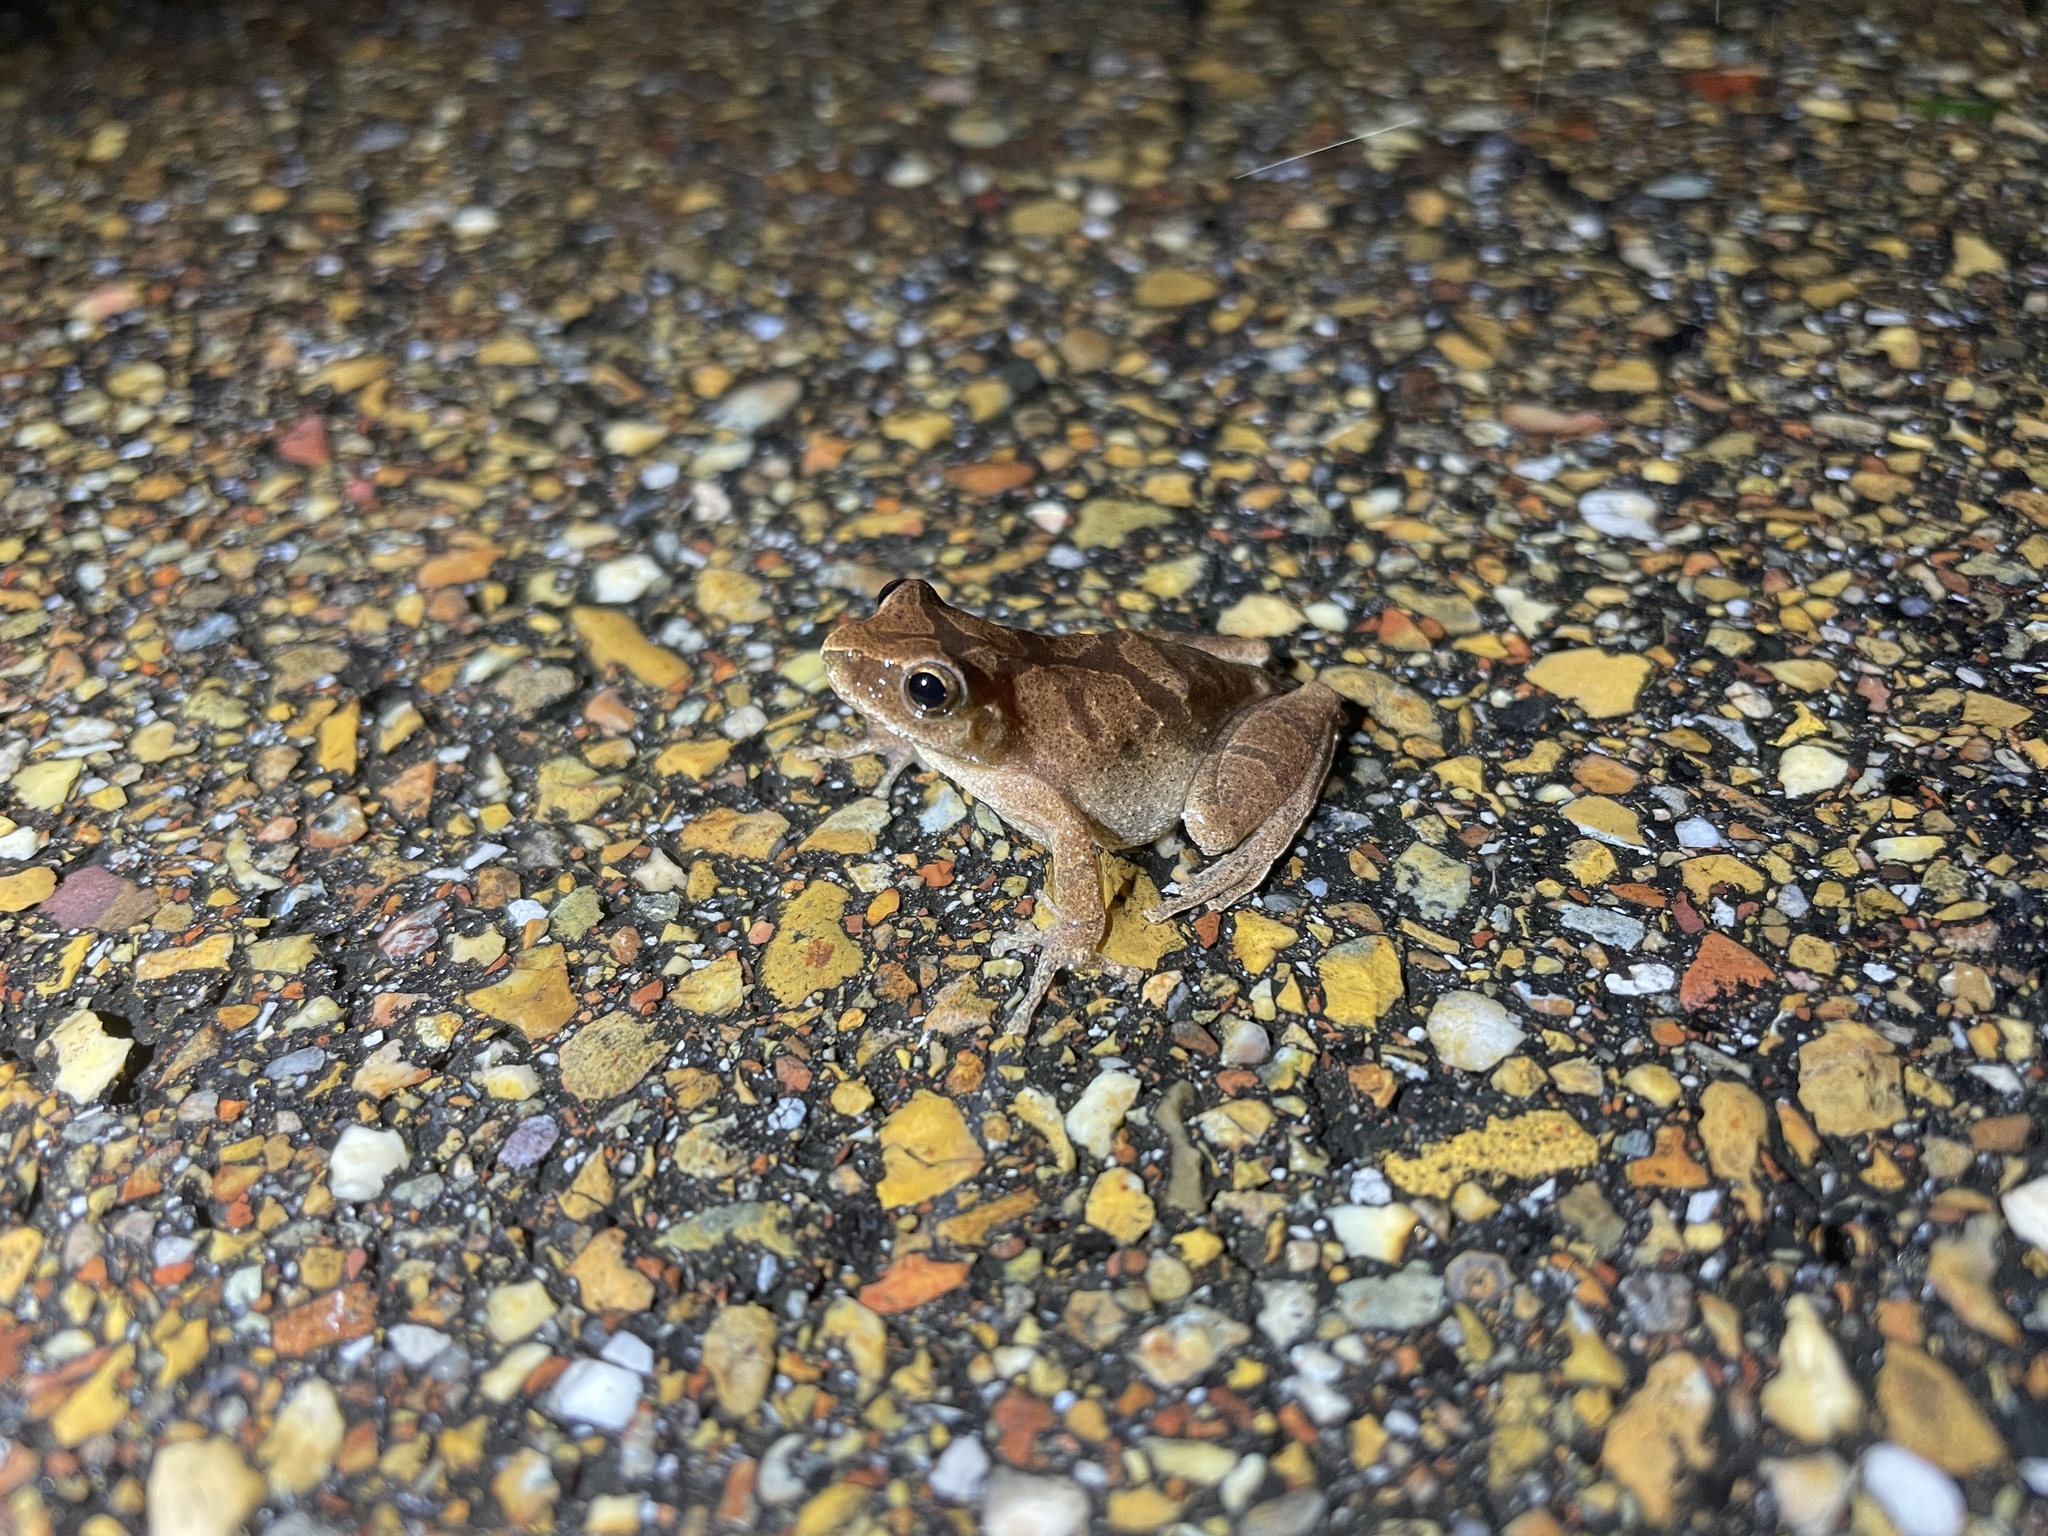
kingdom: Animalia
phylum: Chordata
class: Amphibia
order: Anura
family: Hylidae
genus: Pseudacris
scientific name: Pseudacris crucifer
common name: Spring peeper
